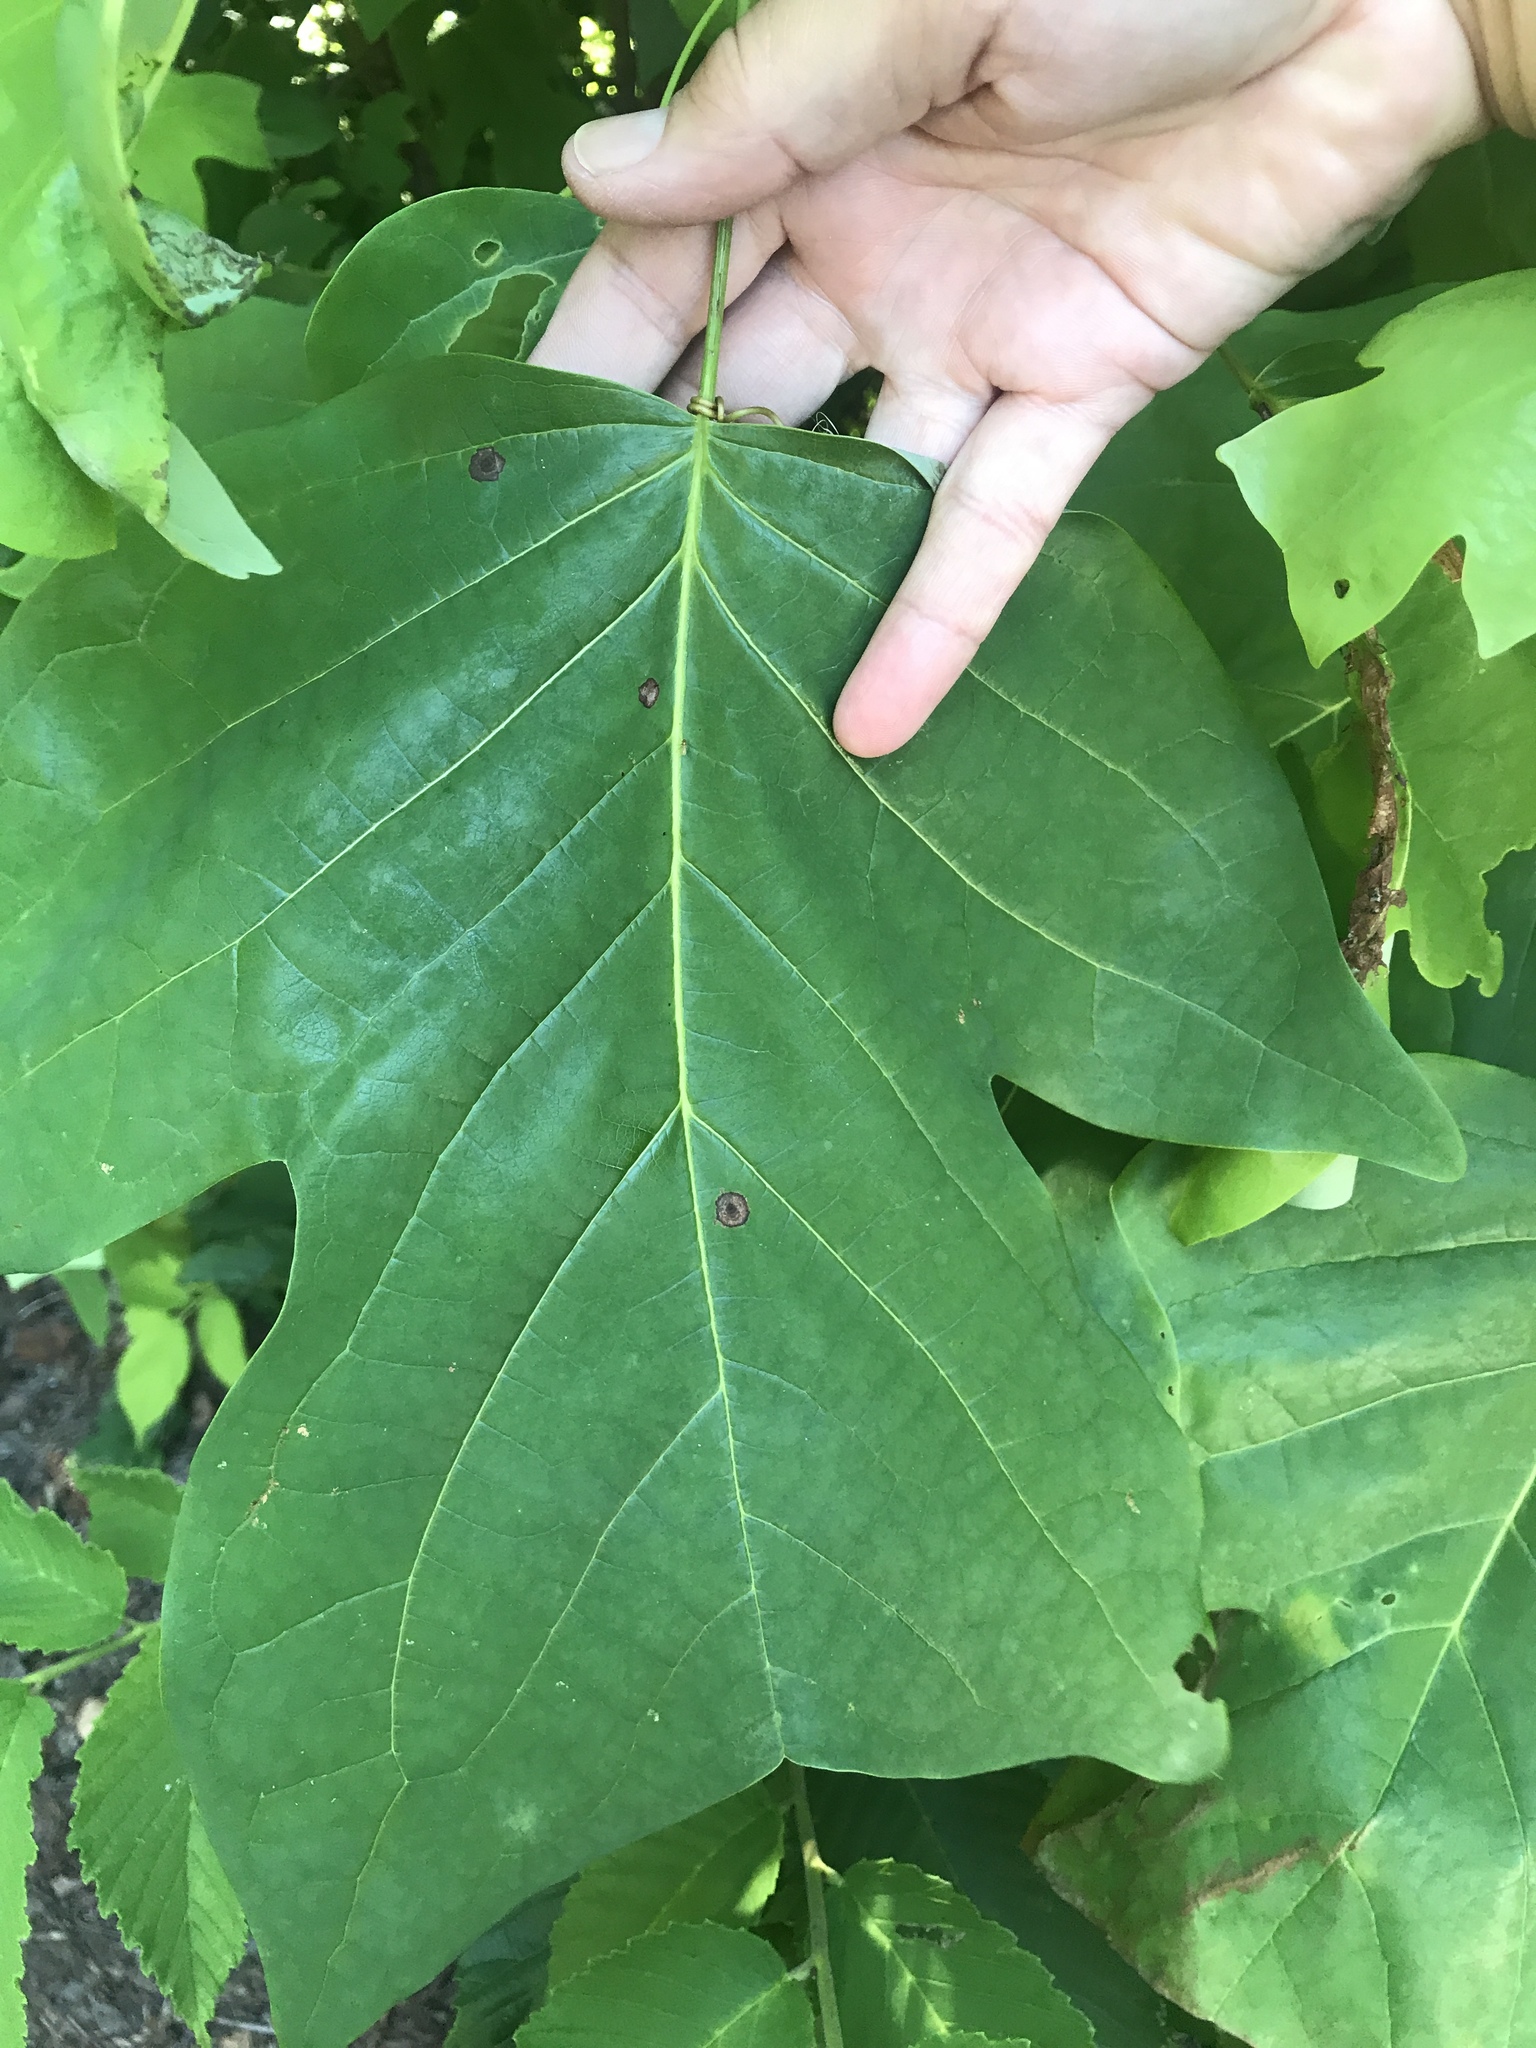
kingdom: Plantae
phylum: Tracheophyta
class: Magnoliopsida
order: Magnoliales
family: Magnoliaceae
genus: Liriodendron
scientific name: Liriodendron tulipifera
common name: Tulip tree
